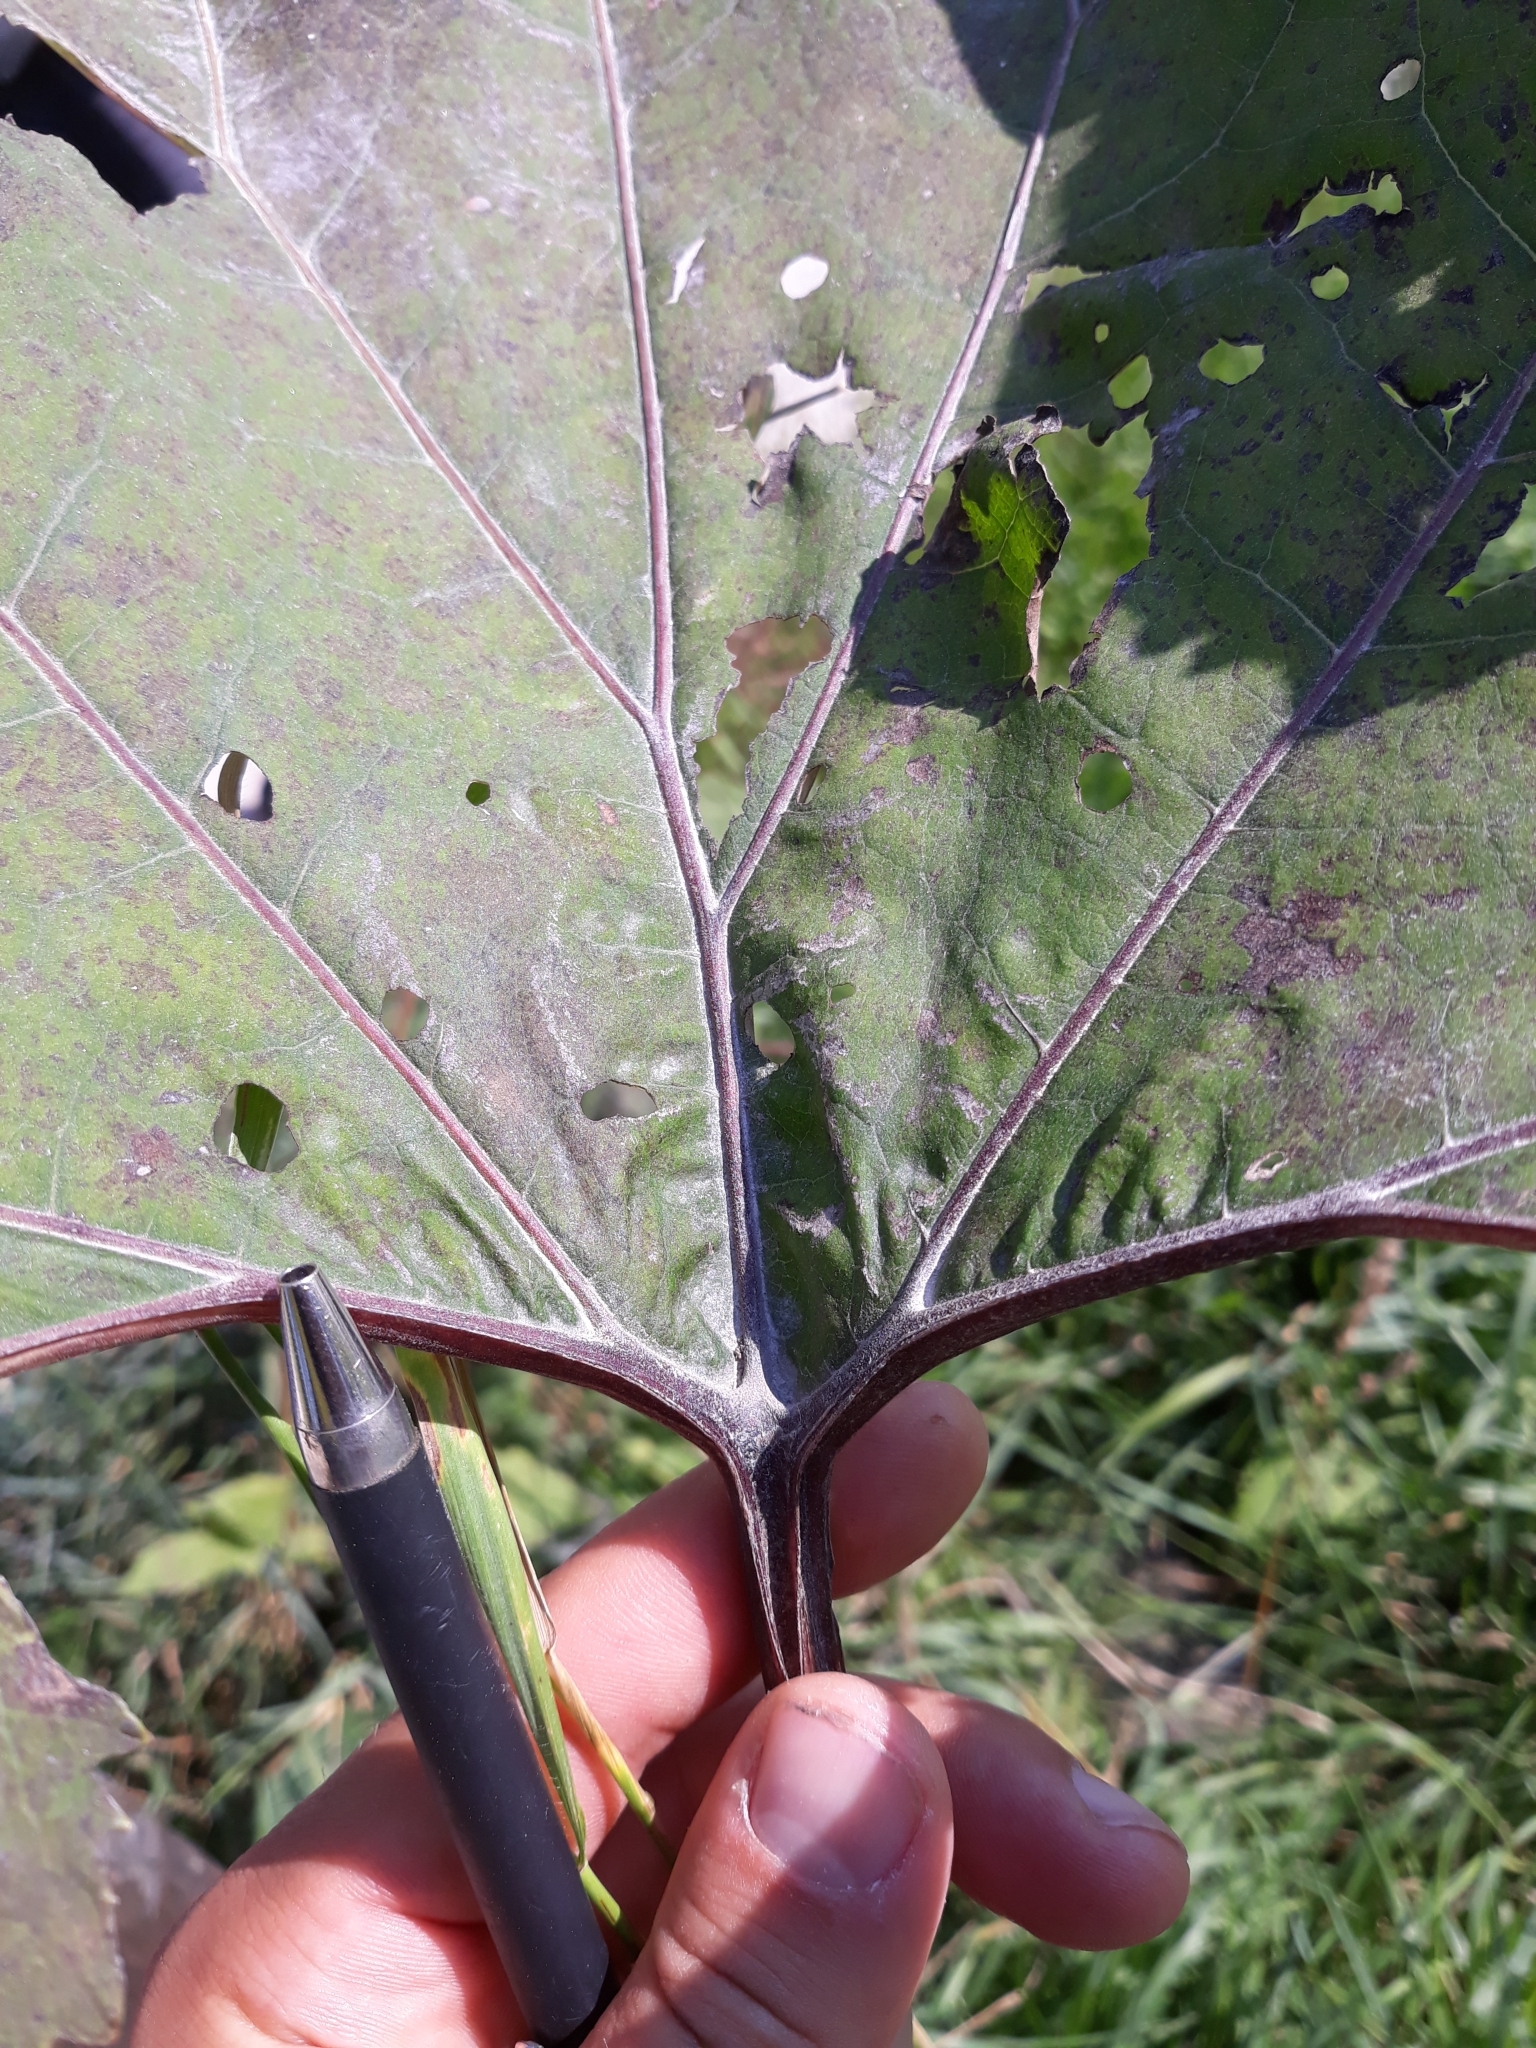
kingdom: Plantae
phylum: Tracheophyta
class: Magnoliopsida
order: Asterales
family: Asteraceae
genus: Petasites
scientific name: Petasites hybridus
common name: Butterbur
